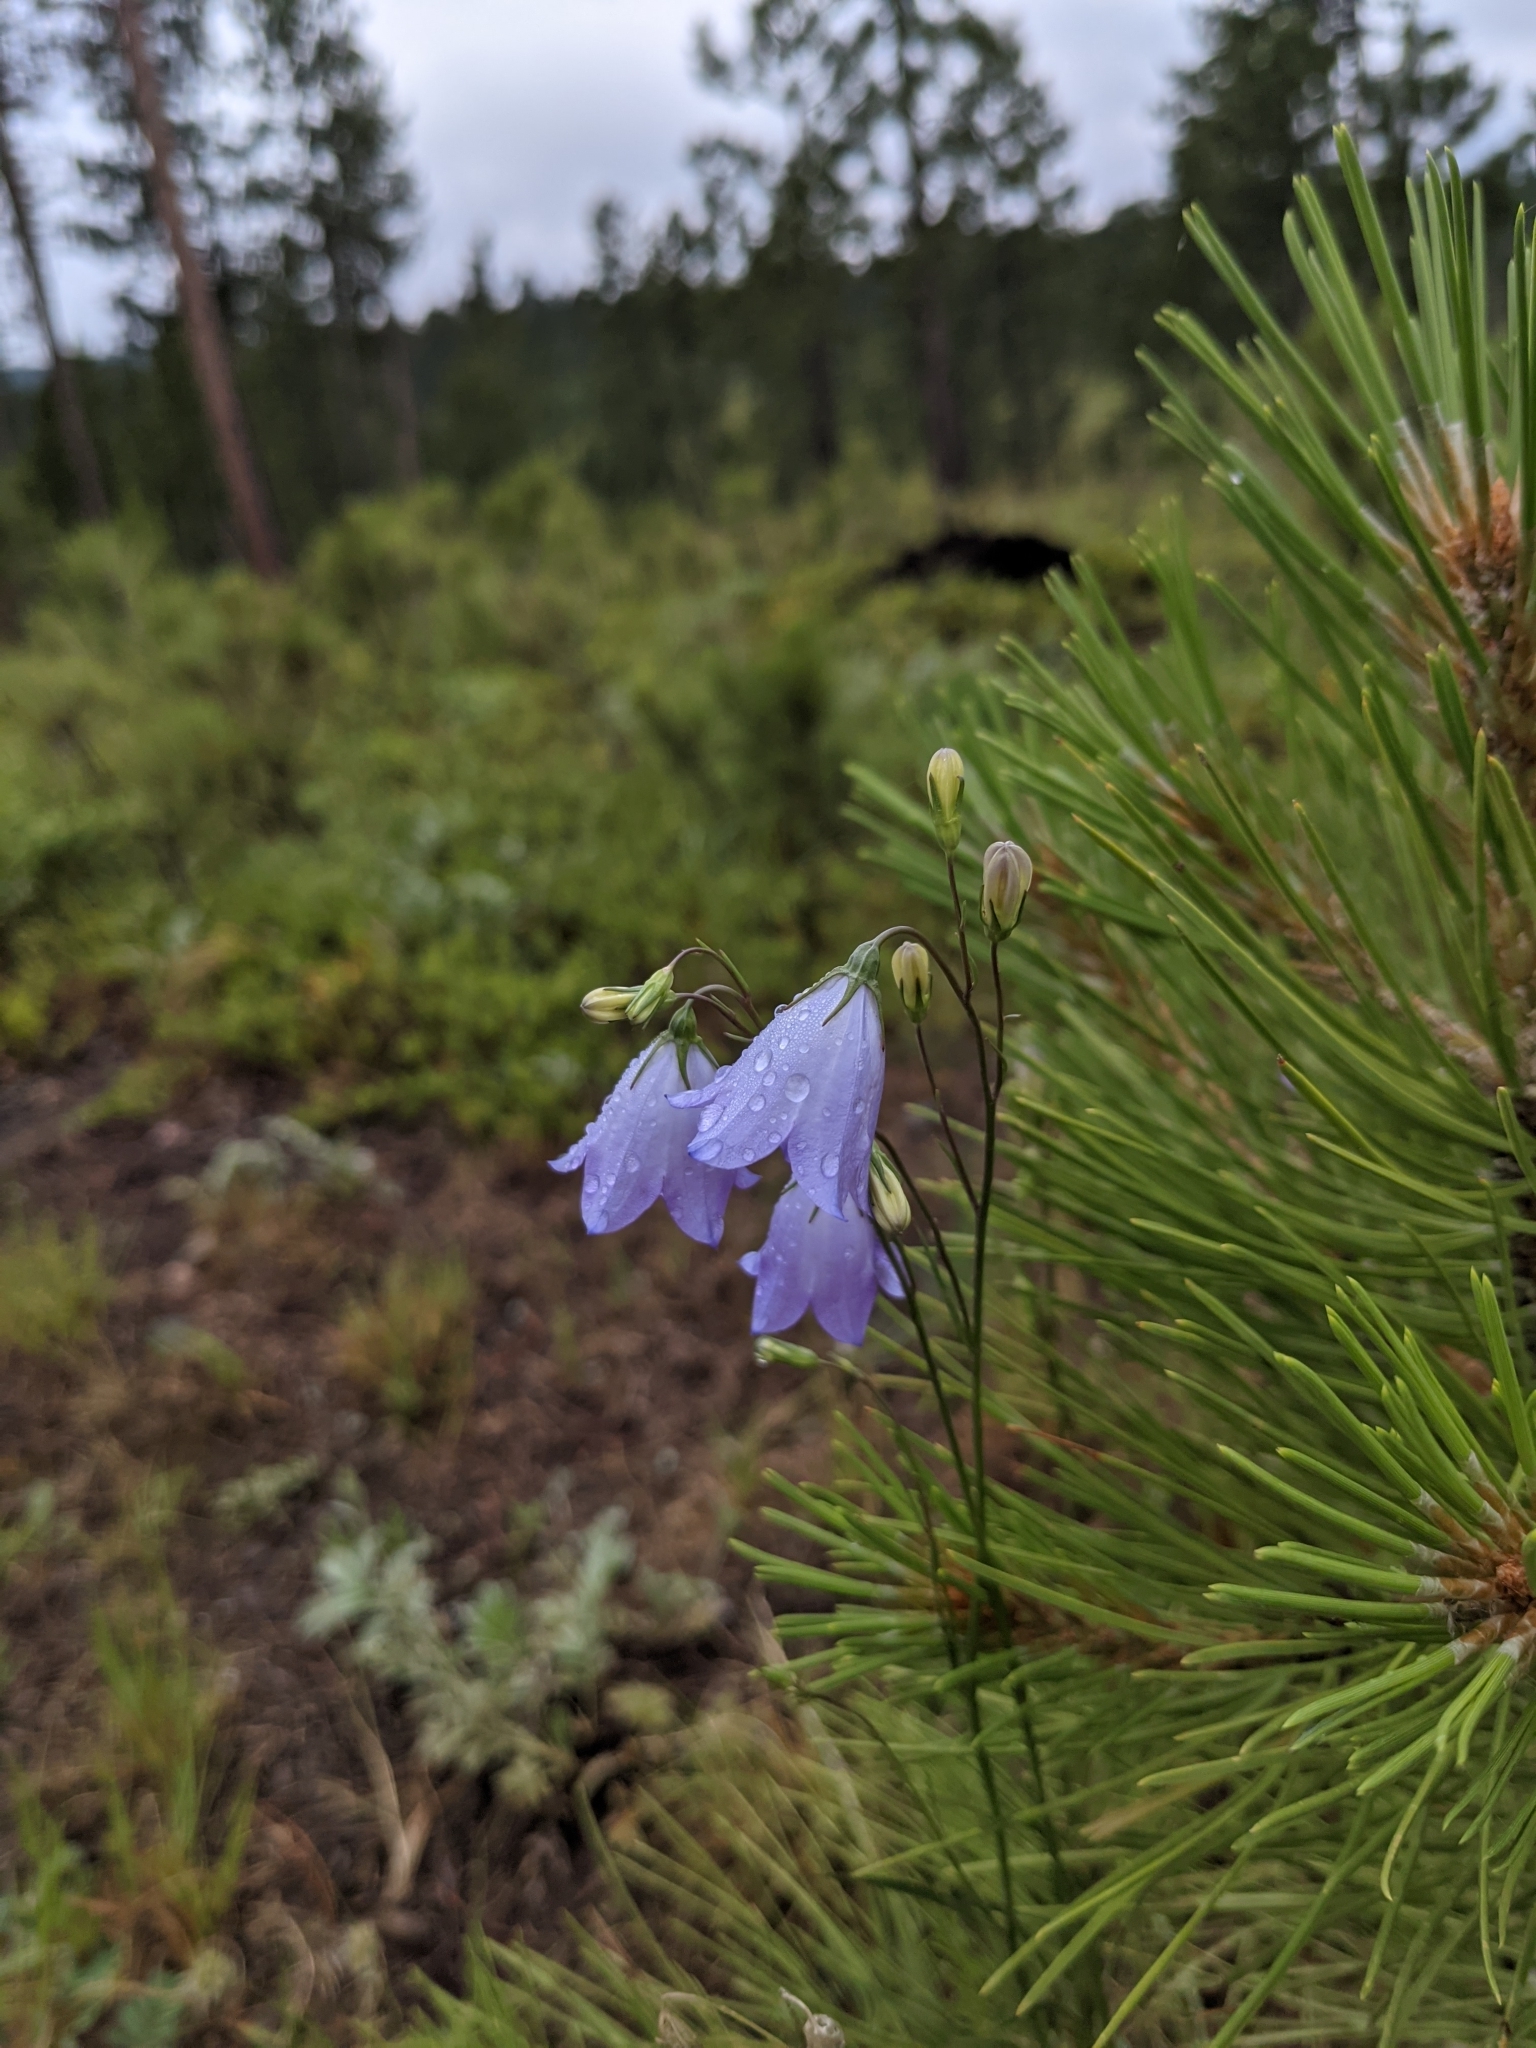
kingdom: Plantae
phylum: Tracheophyta
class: Magnoliopsida
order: Asterales
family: Campanulaceae
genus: Campanula
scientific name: Campanula petiolata
